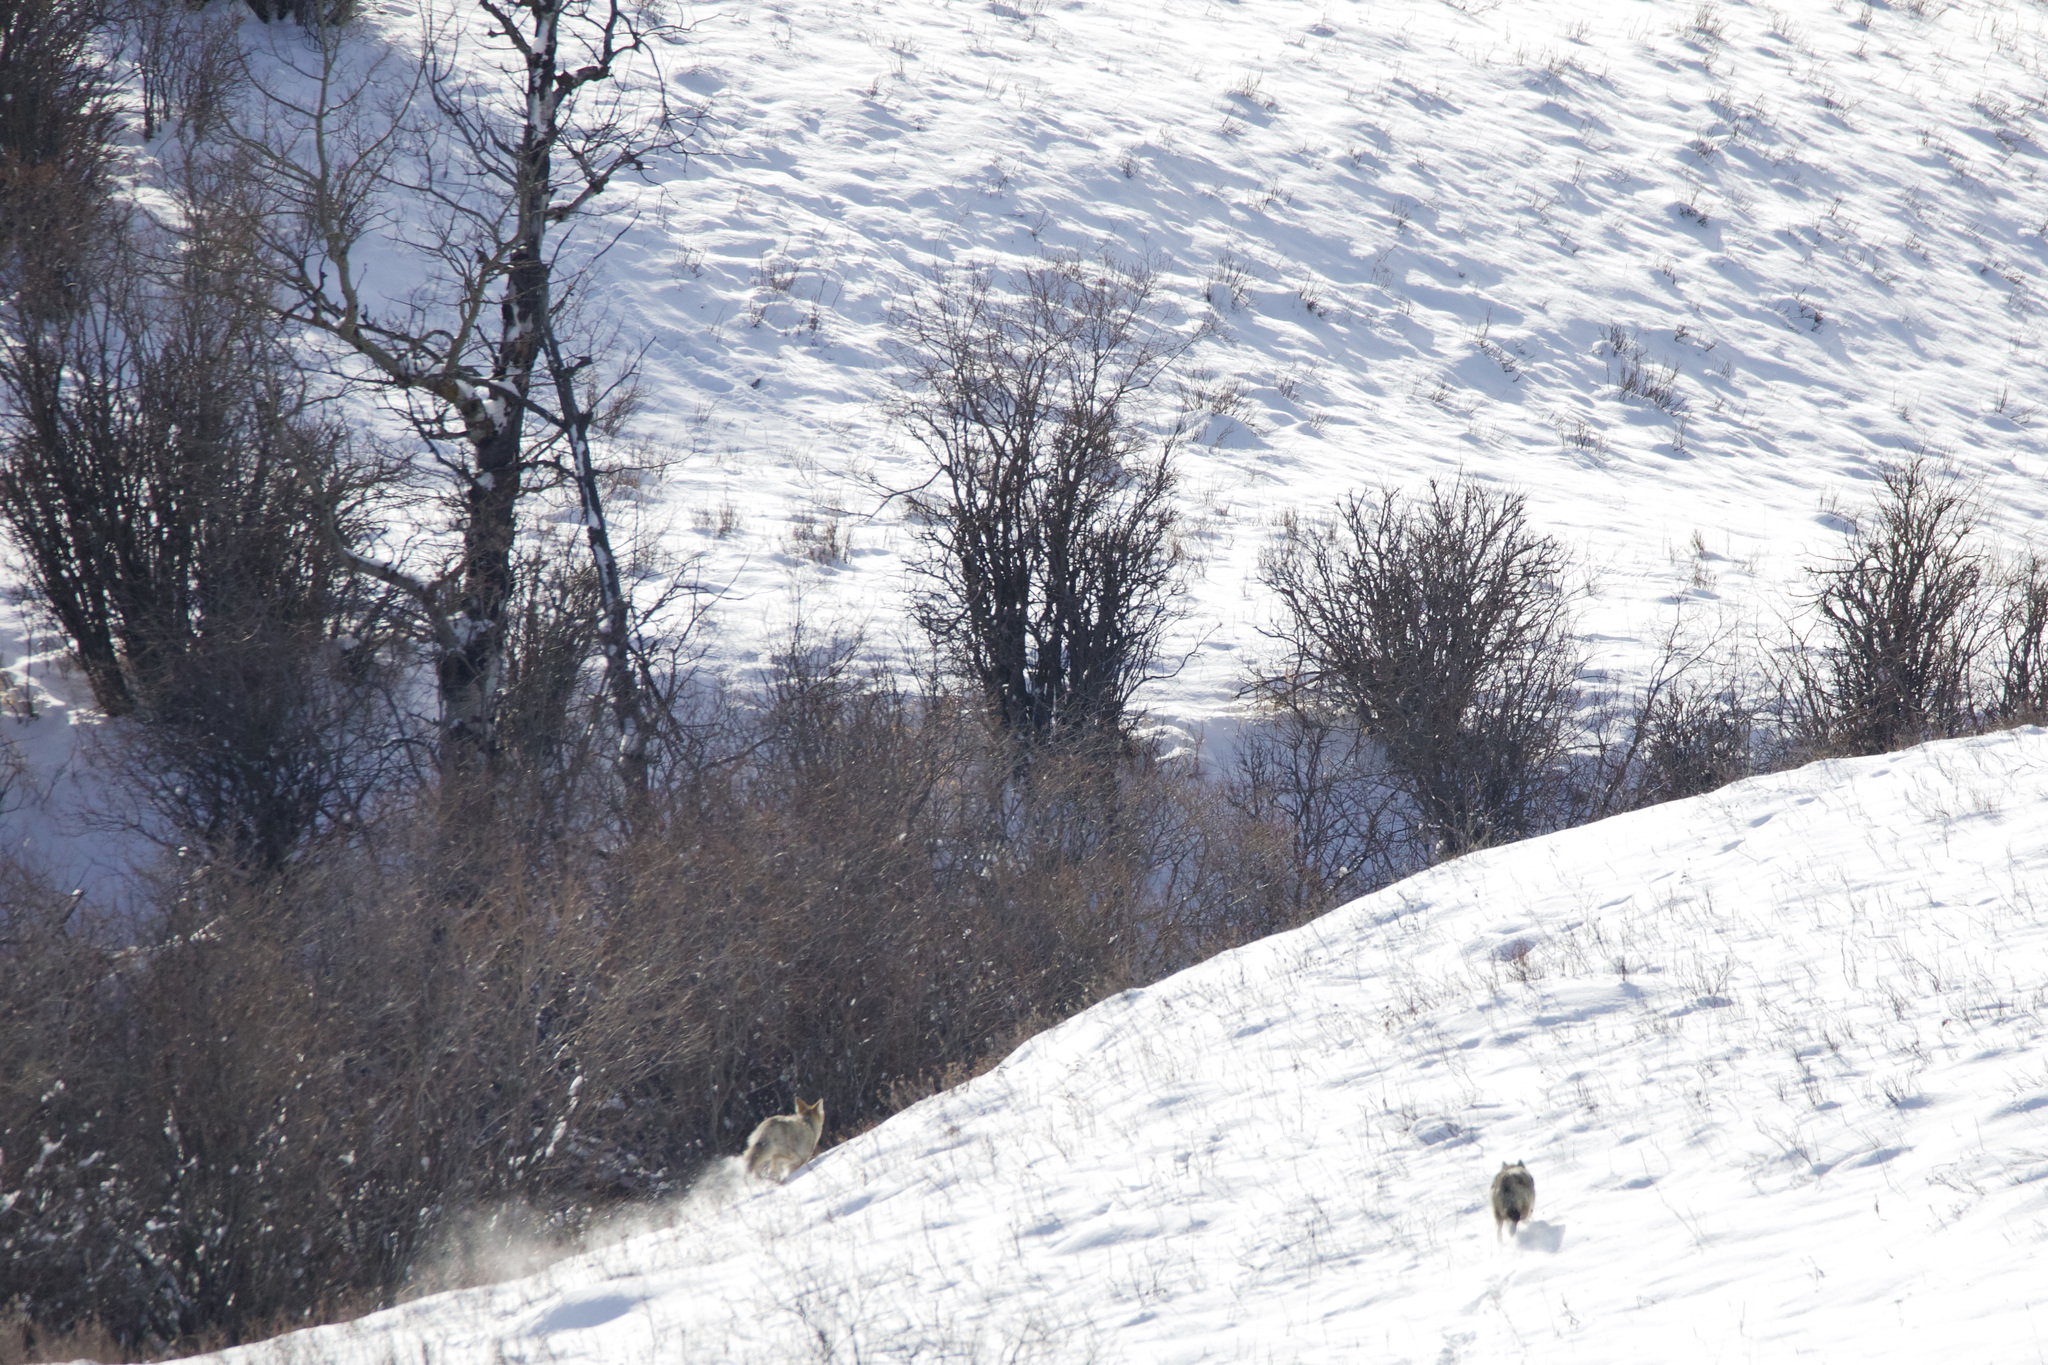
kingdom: Animalia
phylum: Chordata
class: Mammalia
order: Carnivora
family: Canidae
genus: Canis
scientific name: Canis latrans
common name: Coyote
